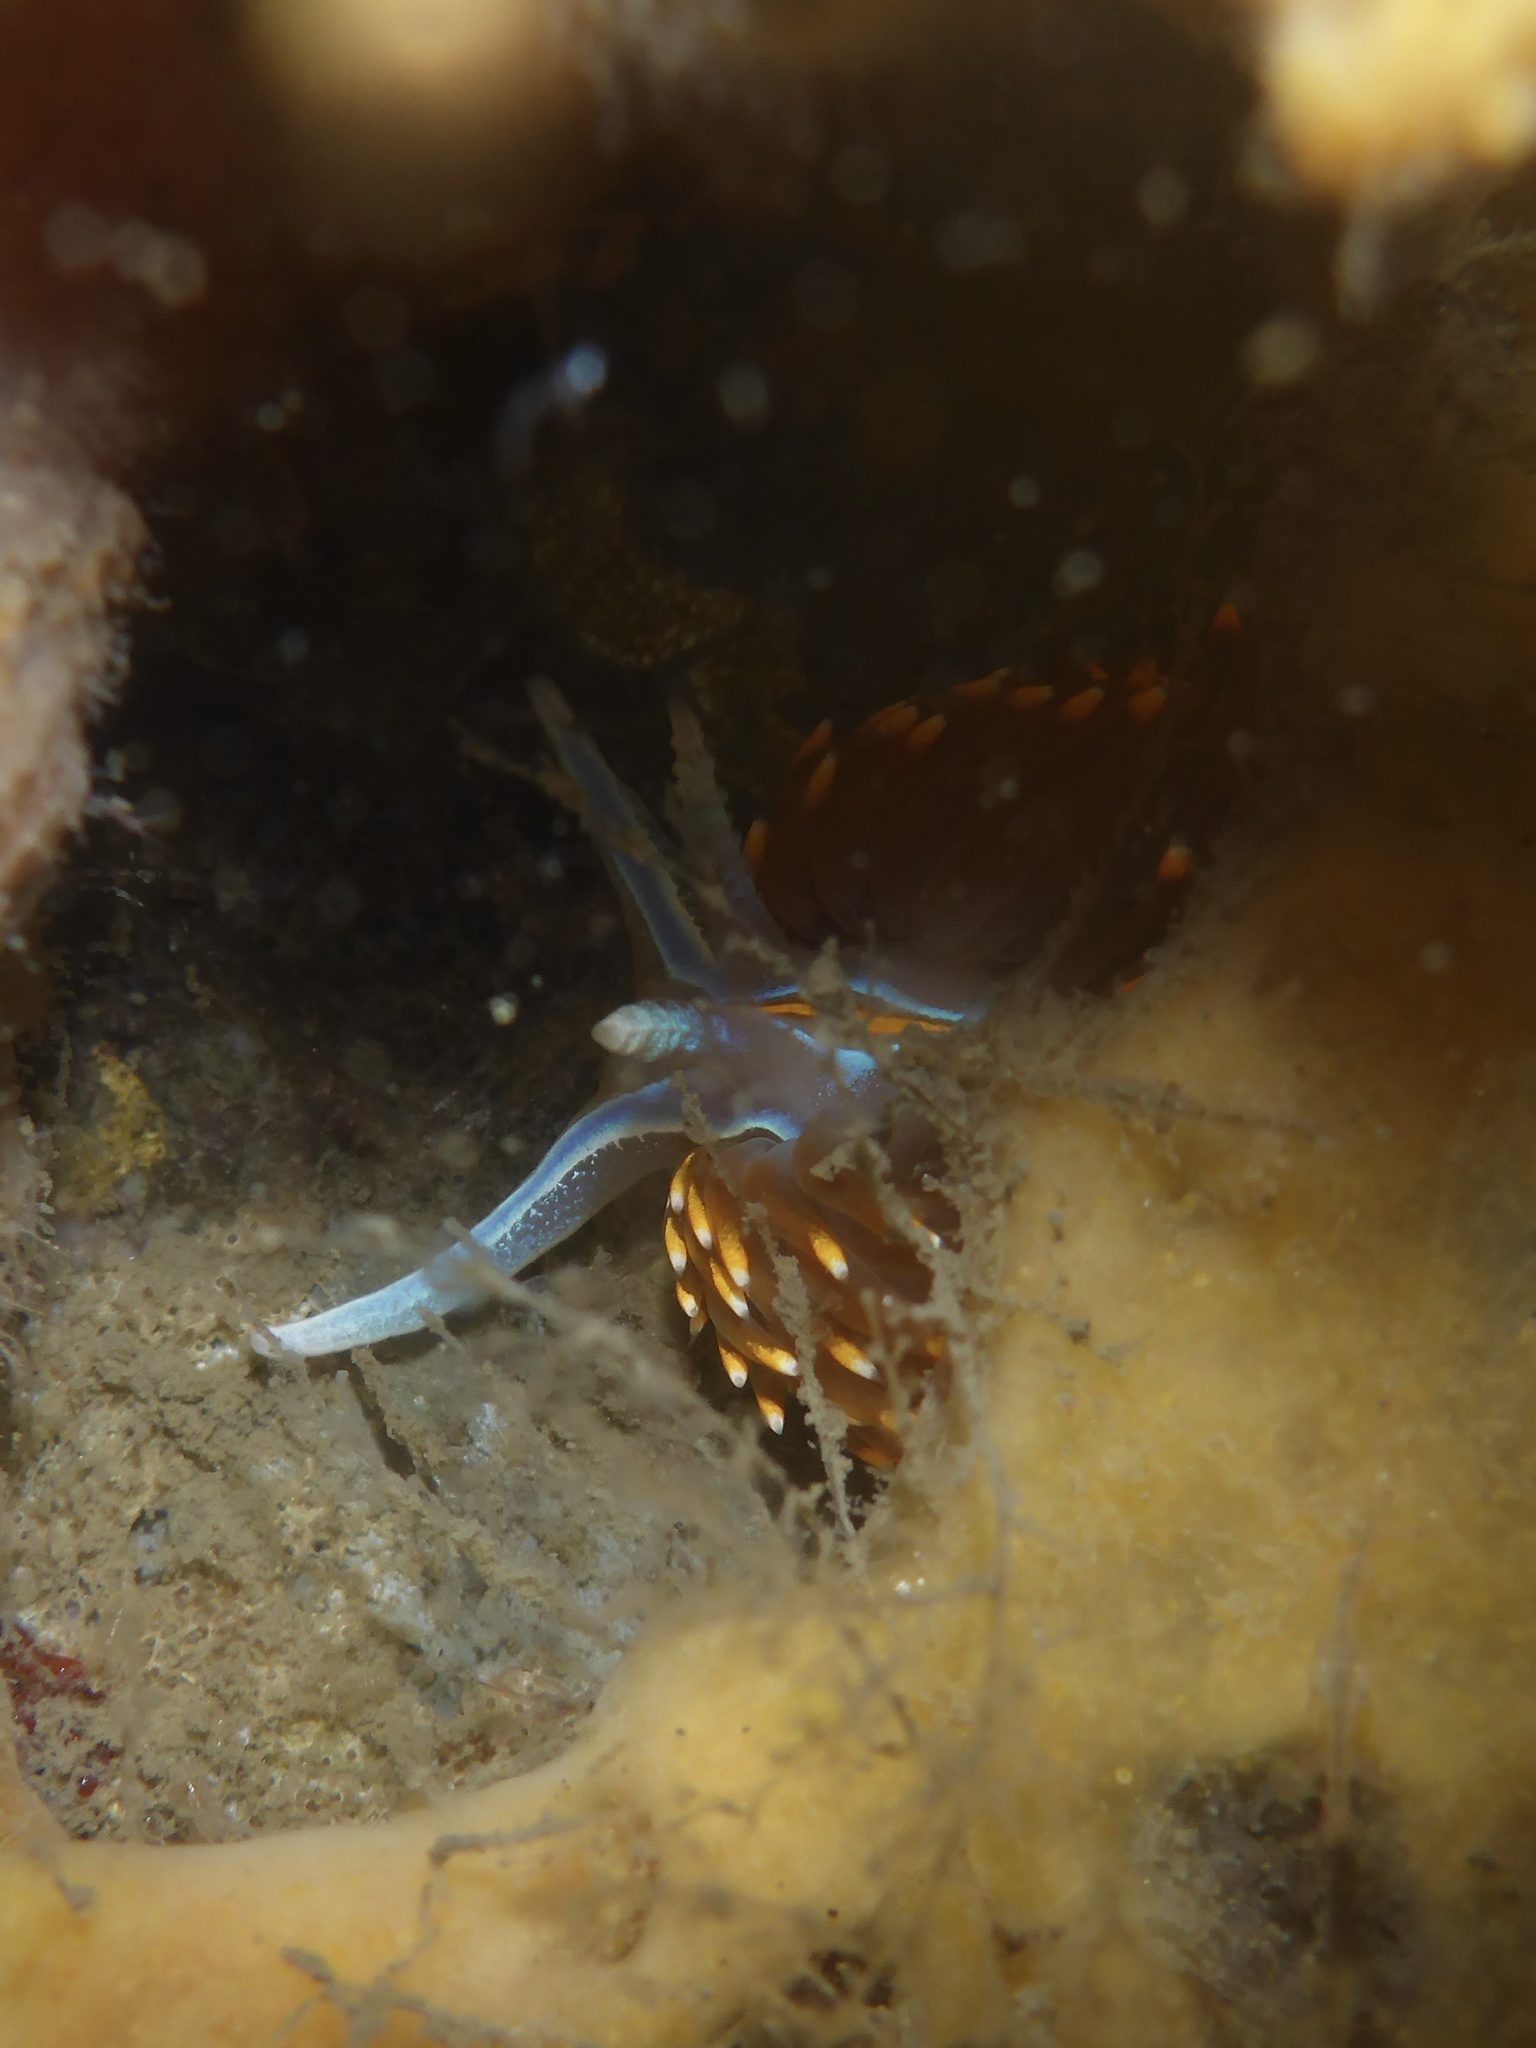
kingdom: Animalia
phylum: Mollusca
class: Gastropoda
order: Nudibranchia
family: Myrrhinidae
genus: Hermissenda
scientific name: Hermissenda opalescens
